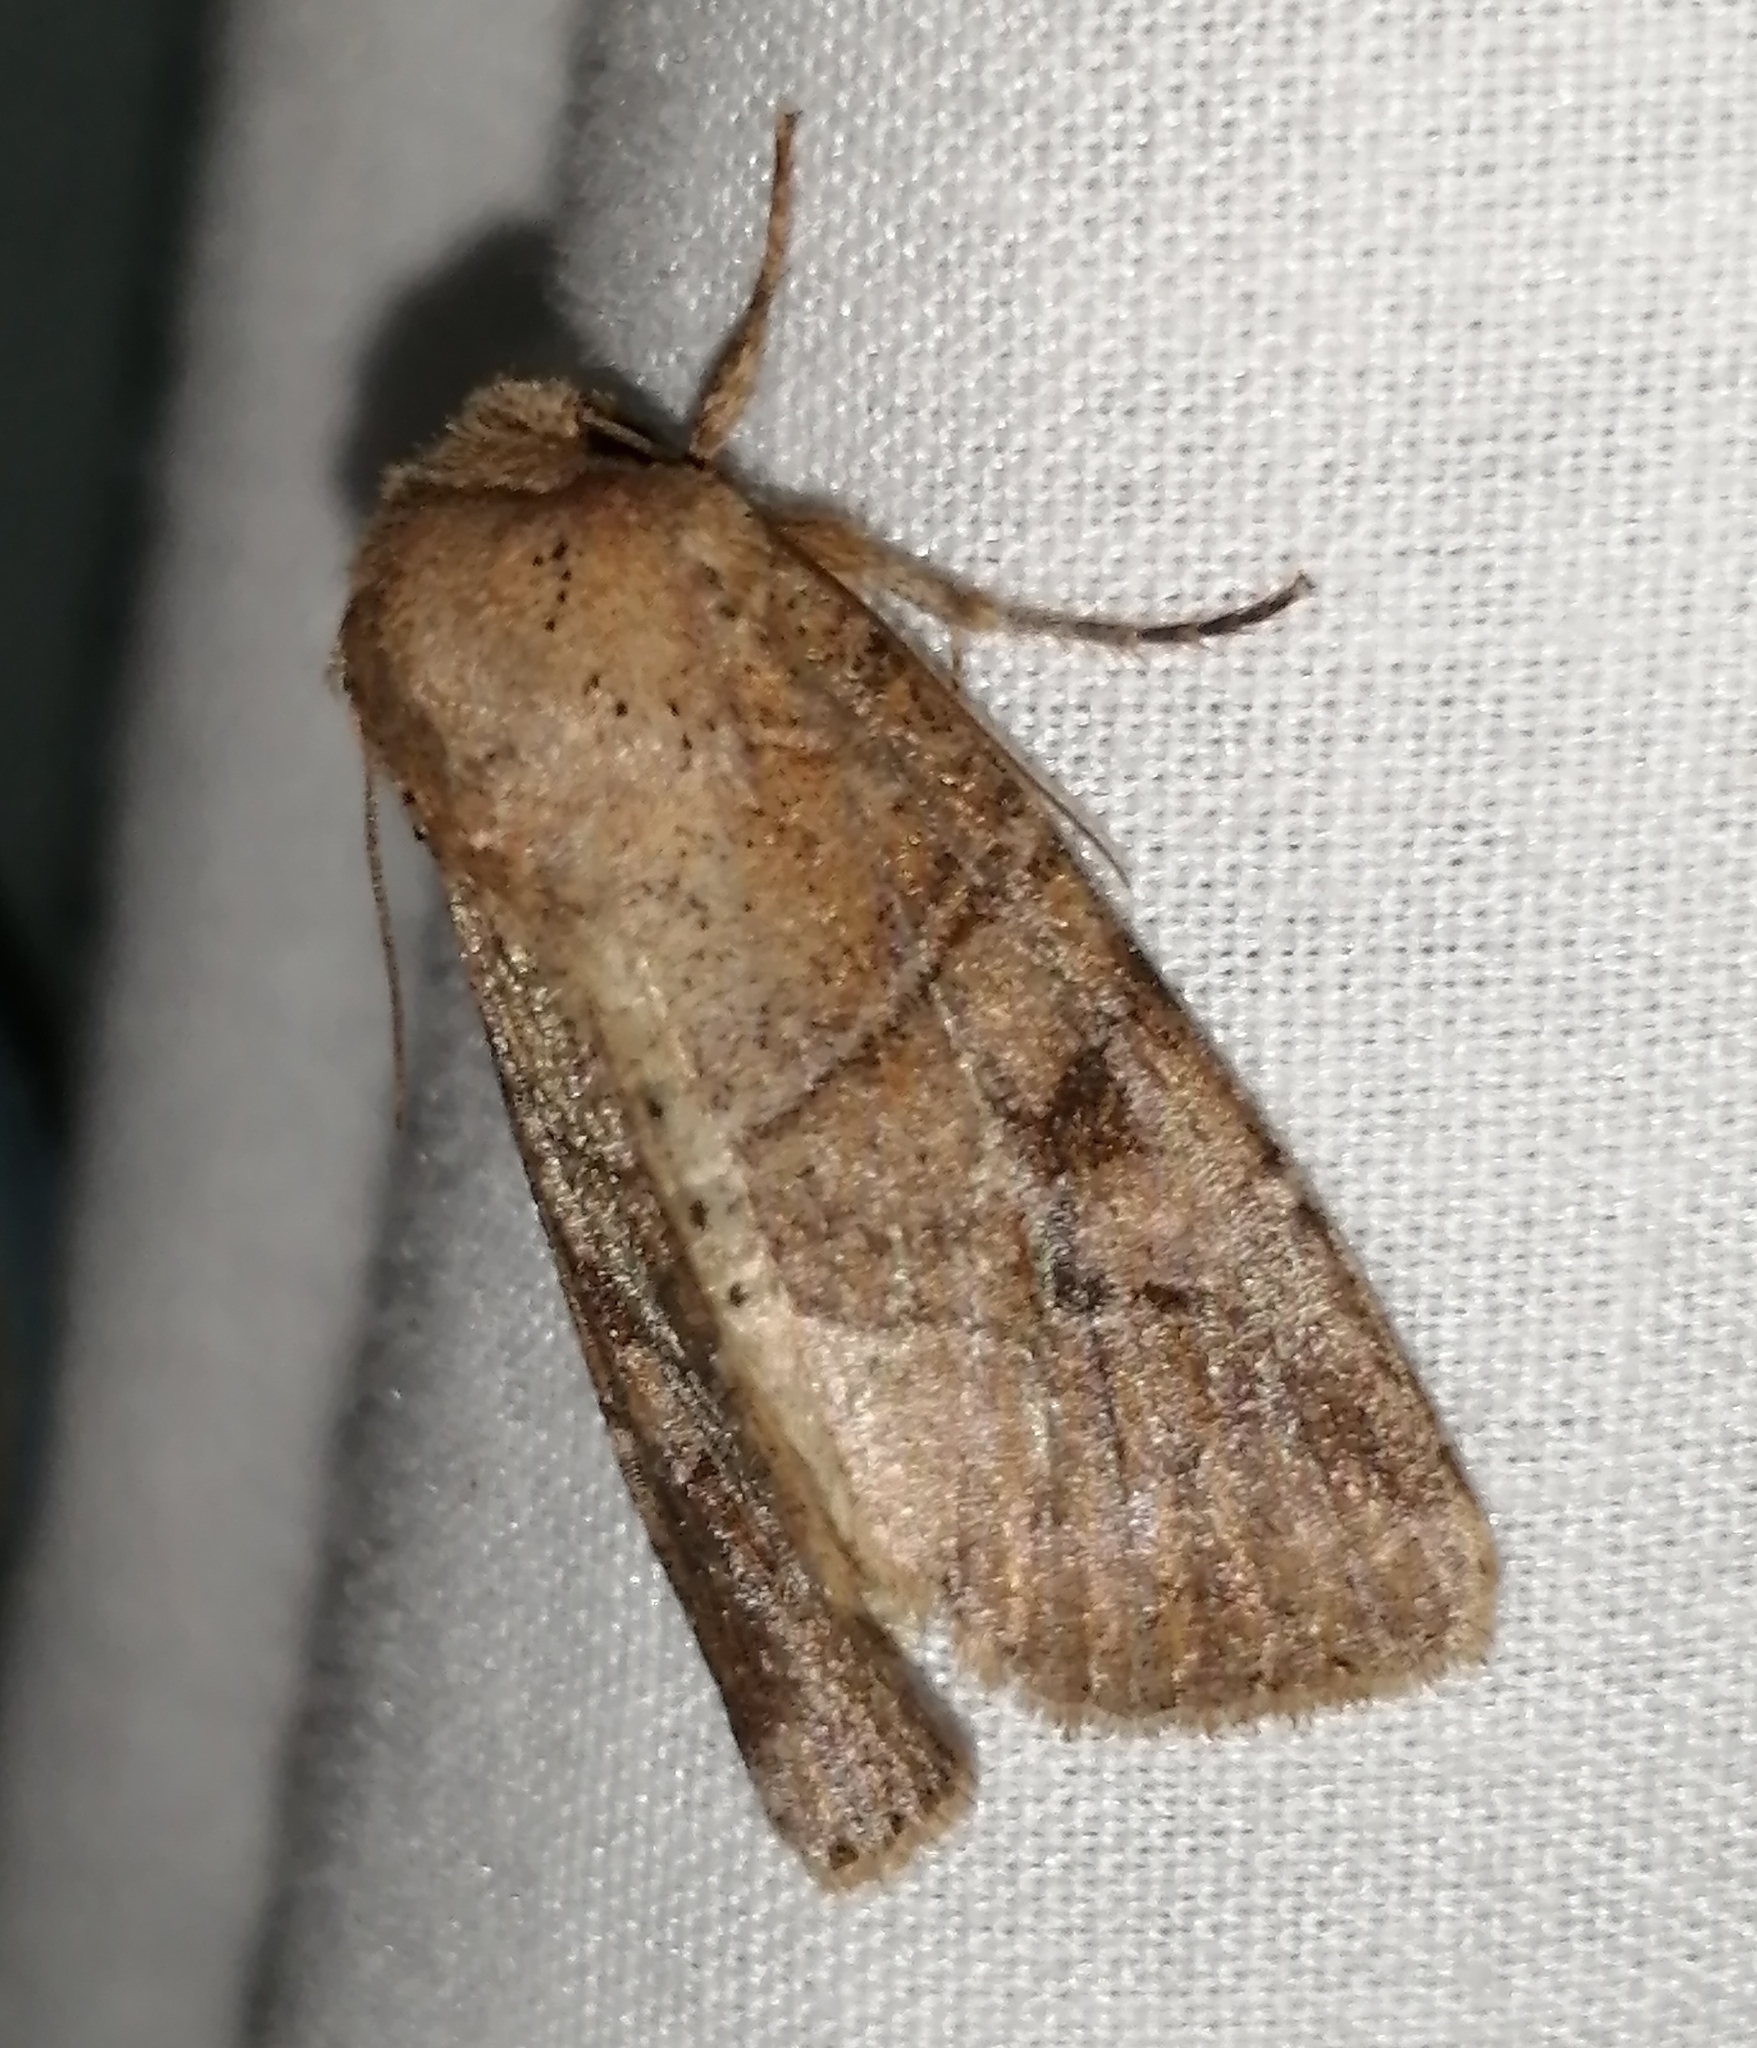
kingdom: Animalia
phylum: Arthropoda
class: Insecta
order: Lepidoptera
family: Noctuidae
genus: Crocigrapha
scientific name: Crocigrapha normani
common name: Norman's quaker
